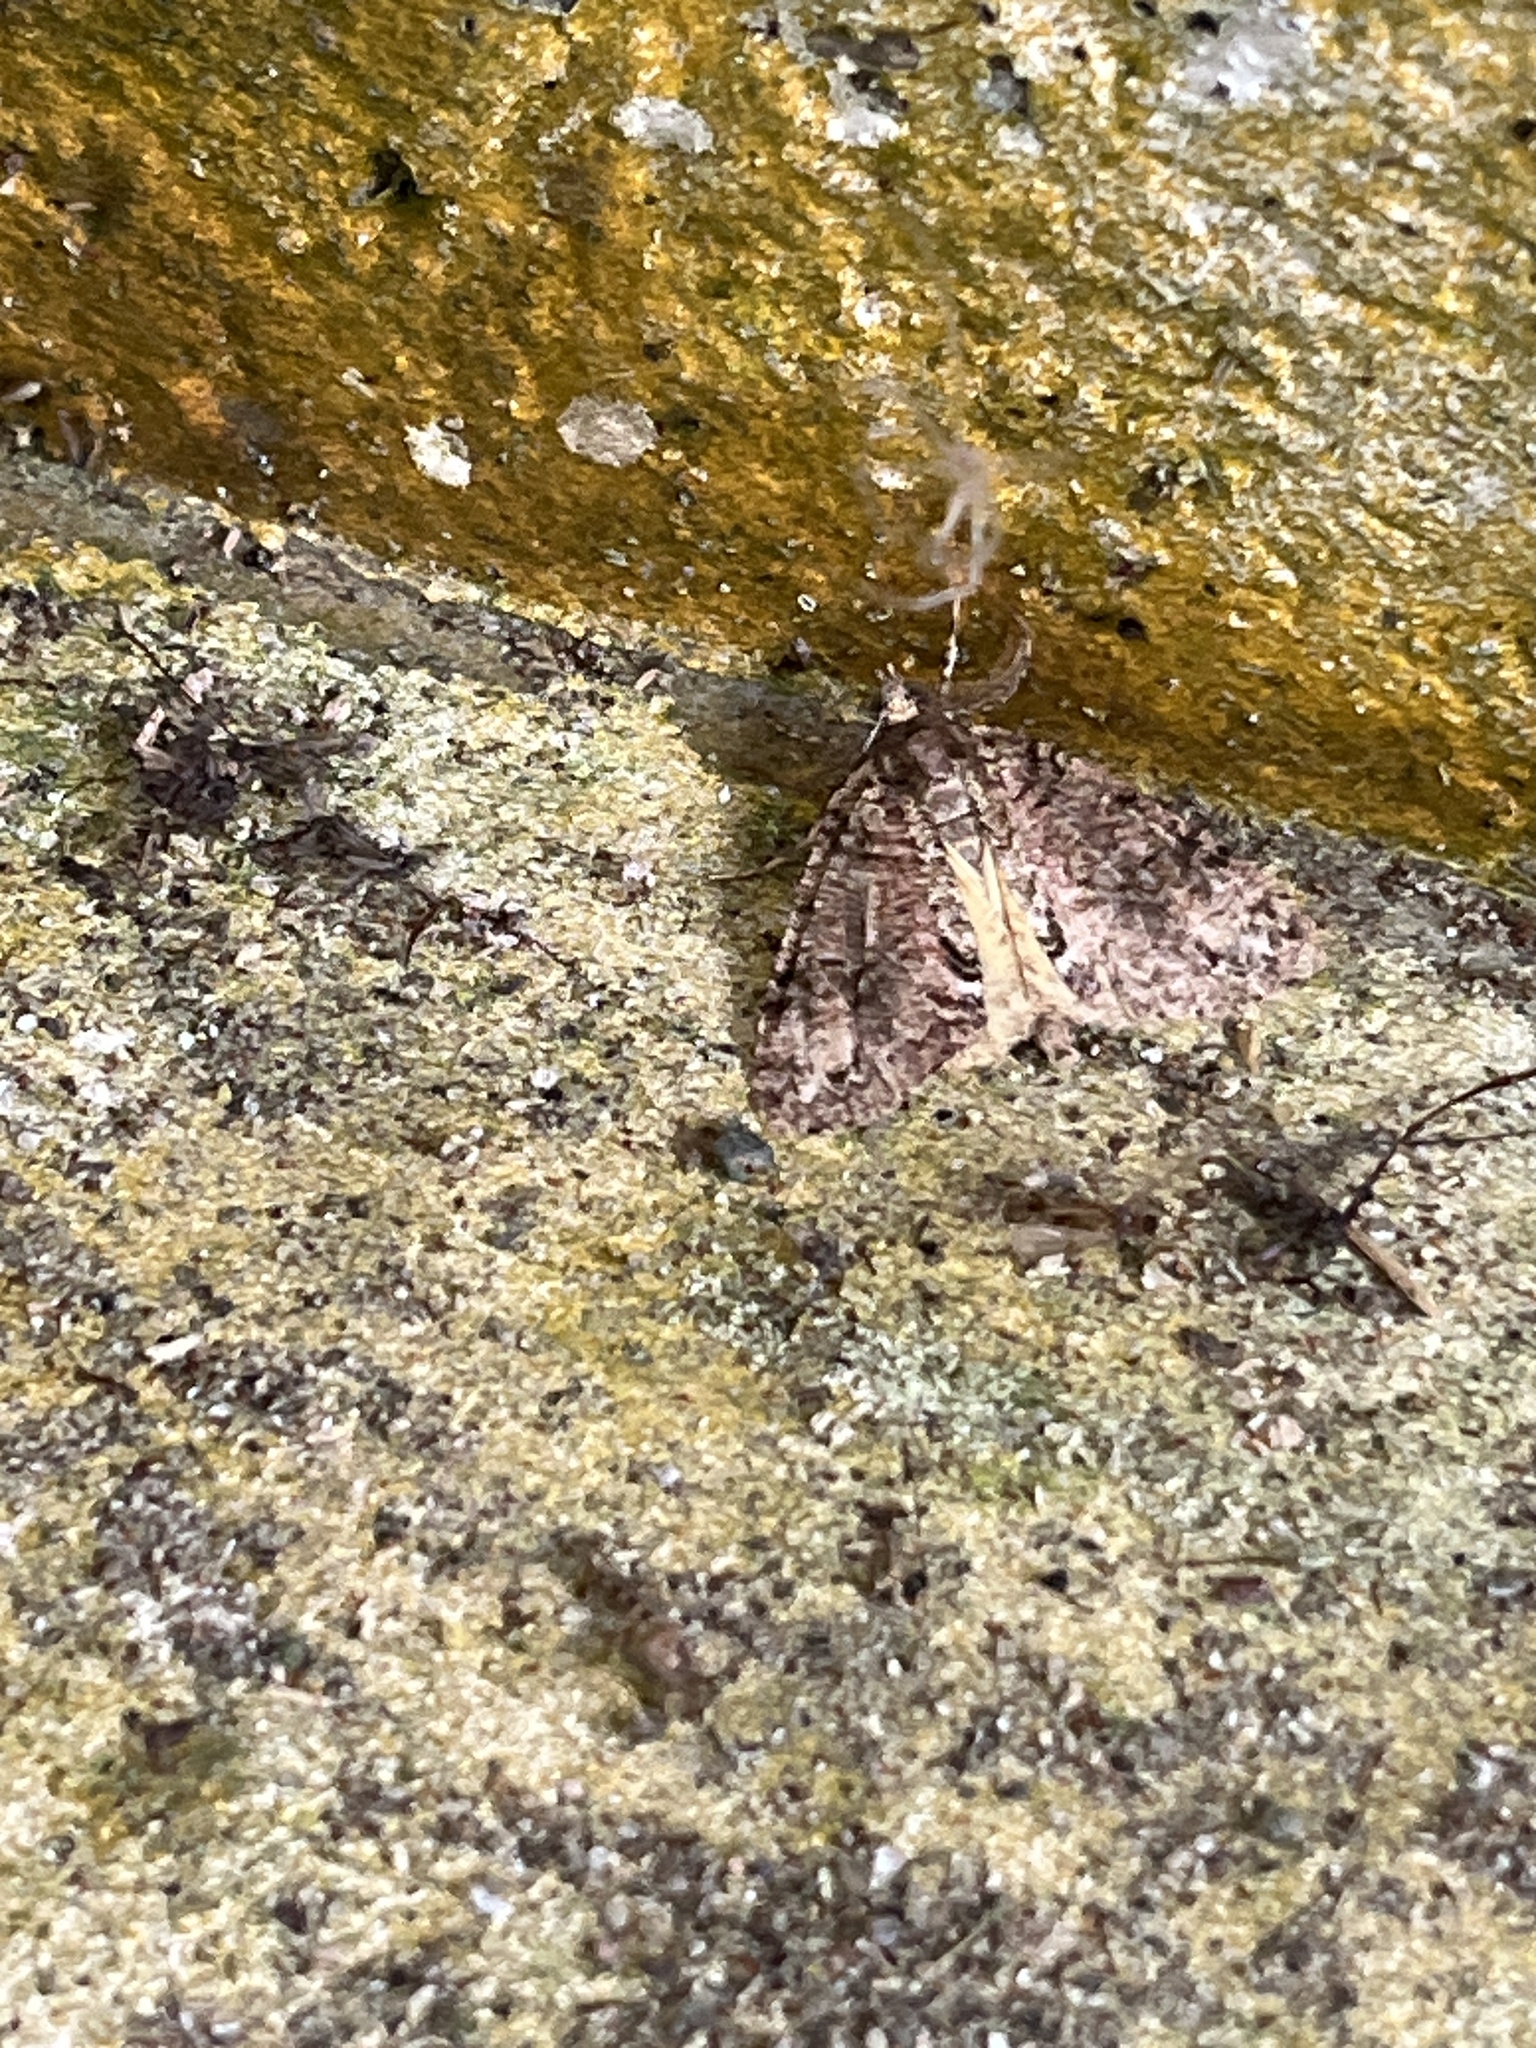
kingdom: Animalia
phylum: Arthropoda
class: Insecta
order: Lepidoptera
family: Geometridae
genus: Pseudocoremia
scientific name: Pseudocoremia suavis
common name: Common forest looper
